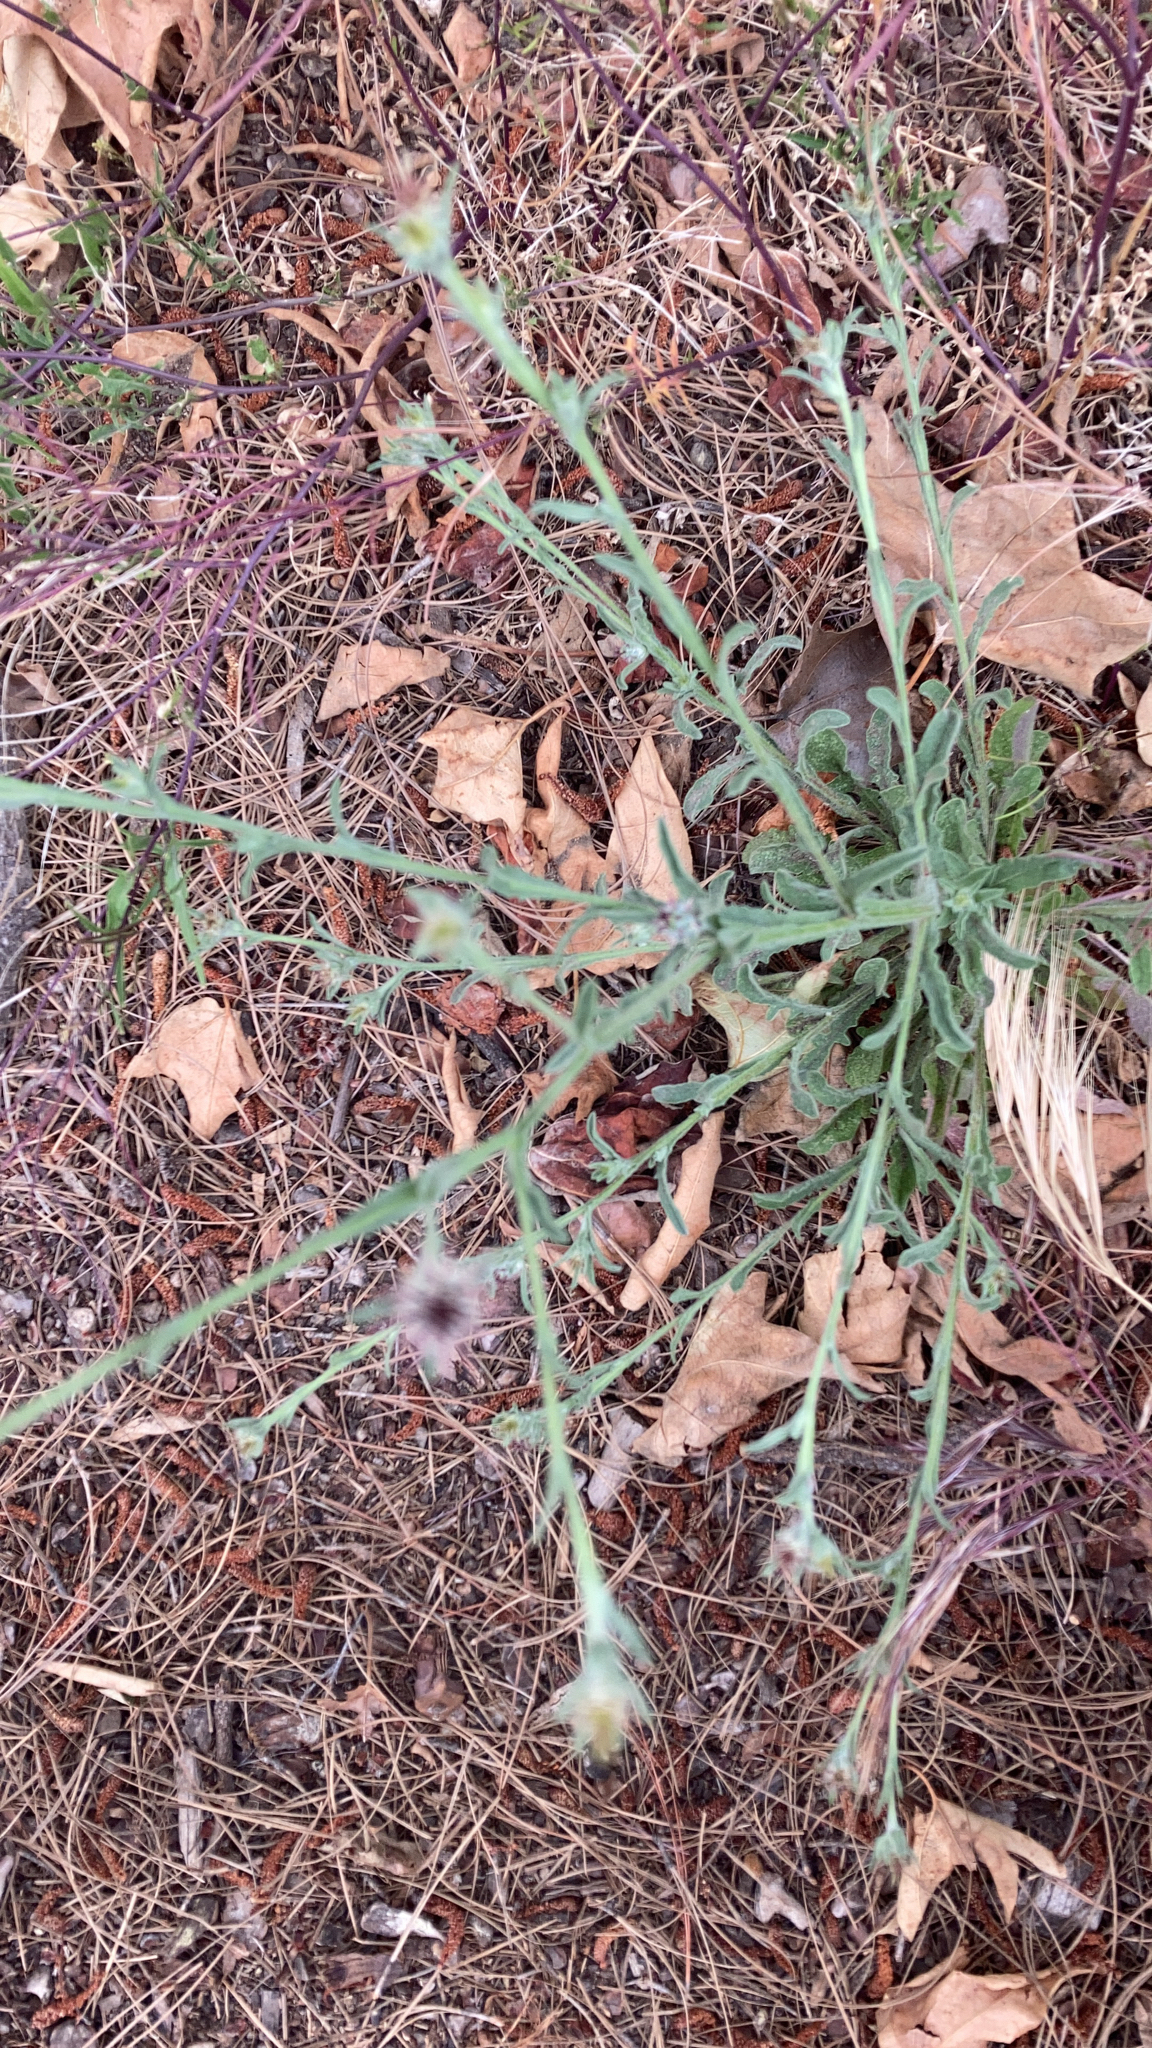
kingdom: Plantae
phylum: Tracheophyta
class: Magnoliopsida
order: Asterales
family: Asteraceae
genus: Centaurea
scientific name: Centaurea melitensis
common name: Maltese star-thistle
